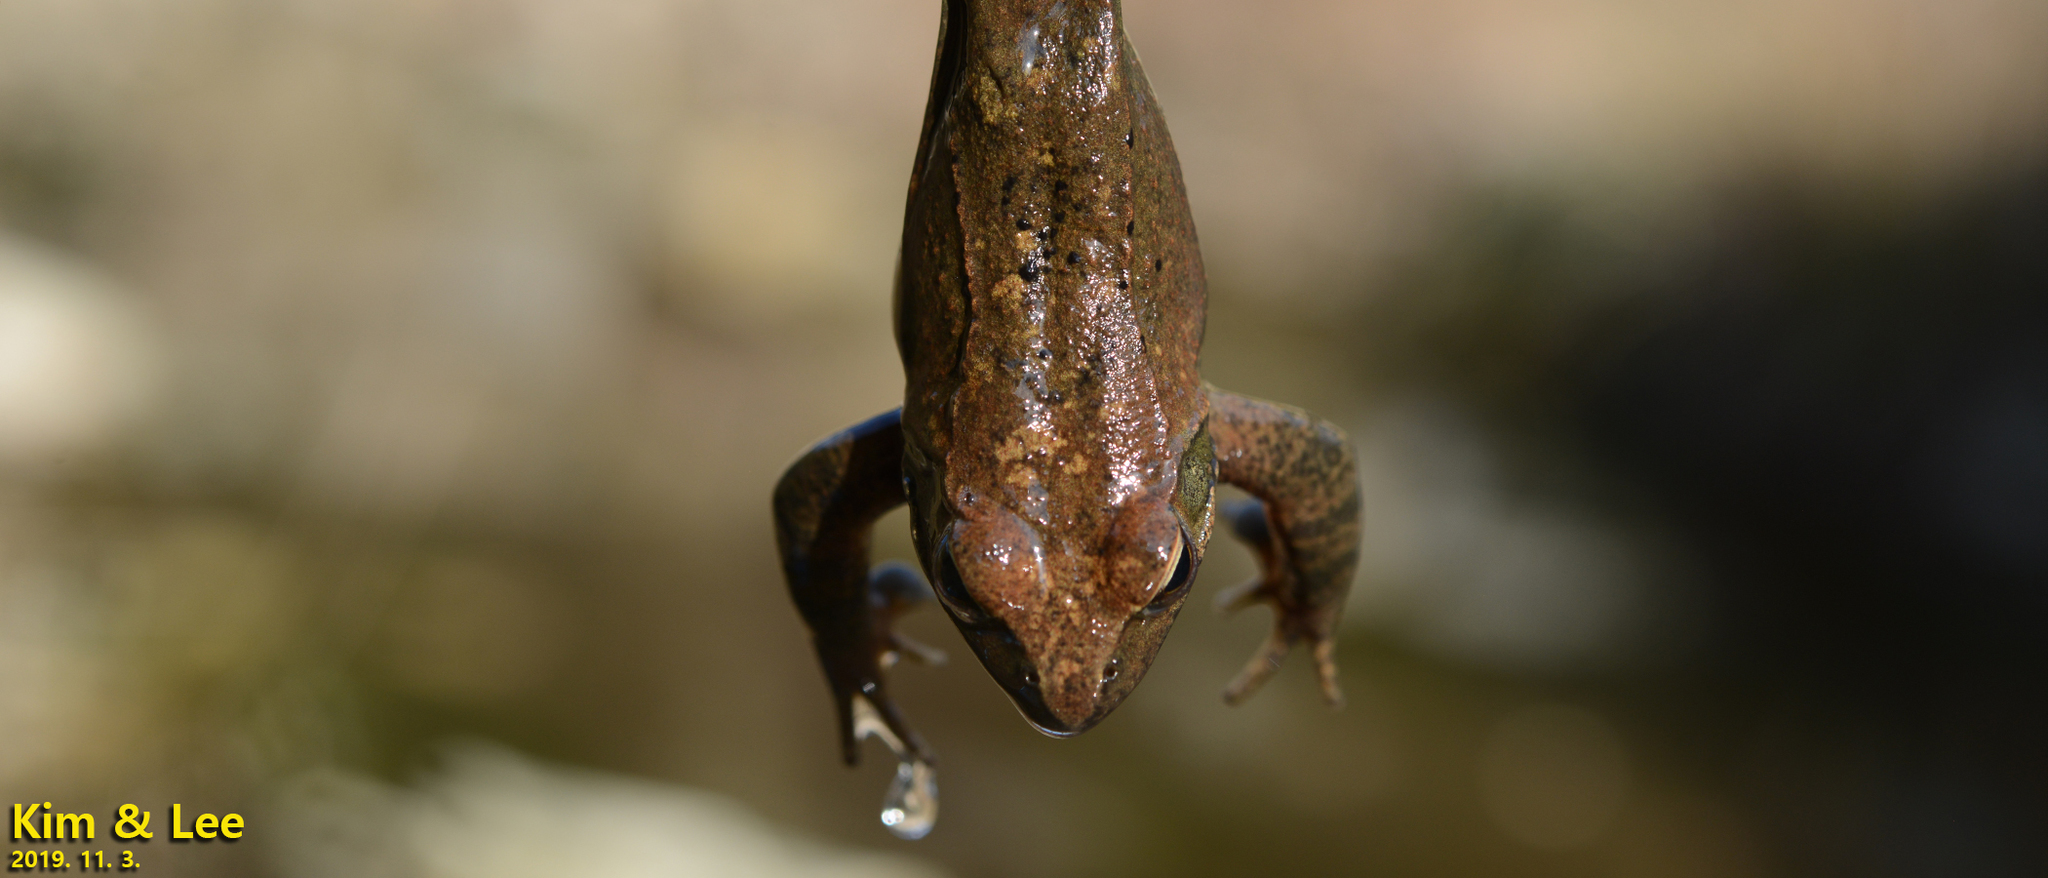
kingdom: Animalia
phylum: Chordata
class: Amphibia
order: Anura
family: Ranidae
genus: Rana
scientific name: Rana huanrenensis
